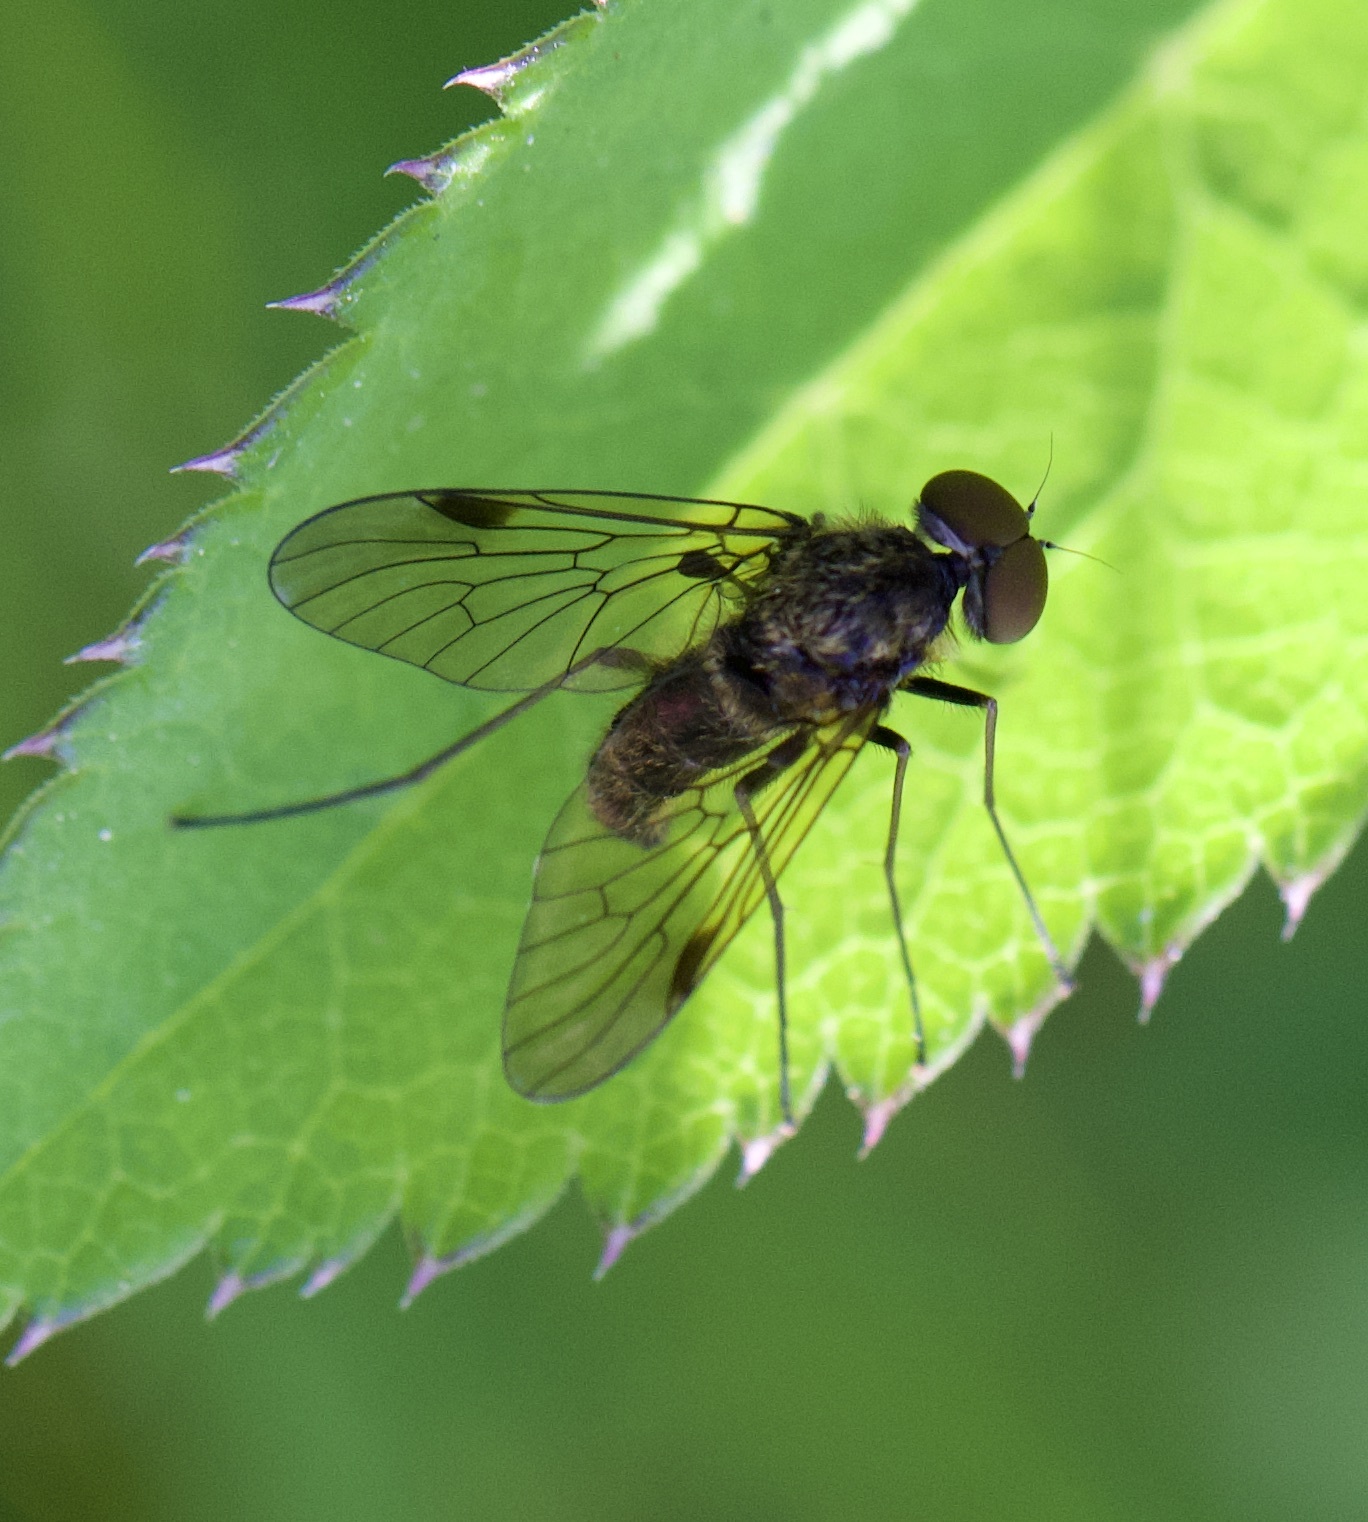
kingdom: Animalia
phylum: Arthropoda
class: Insecta
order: Diptera
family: Rhagionidae
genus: Chrysopilus
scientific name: Chrysopilus cristatus
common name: Black snipefly
